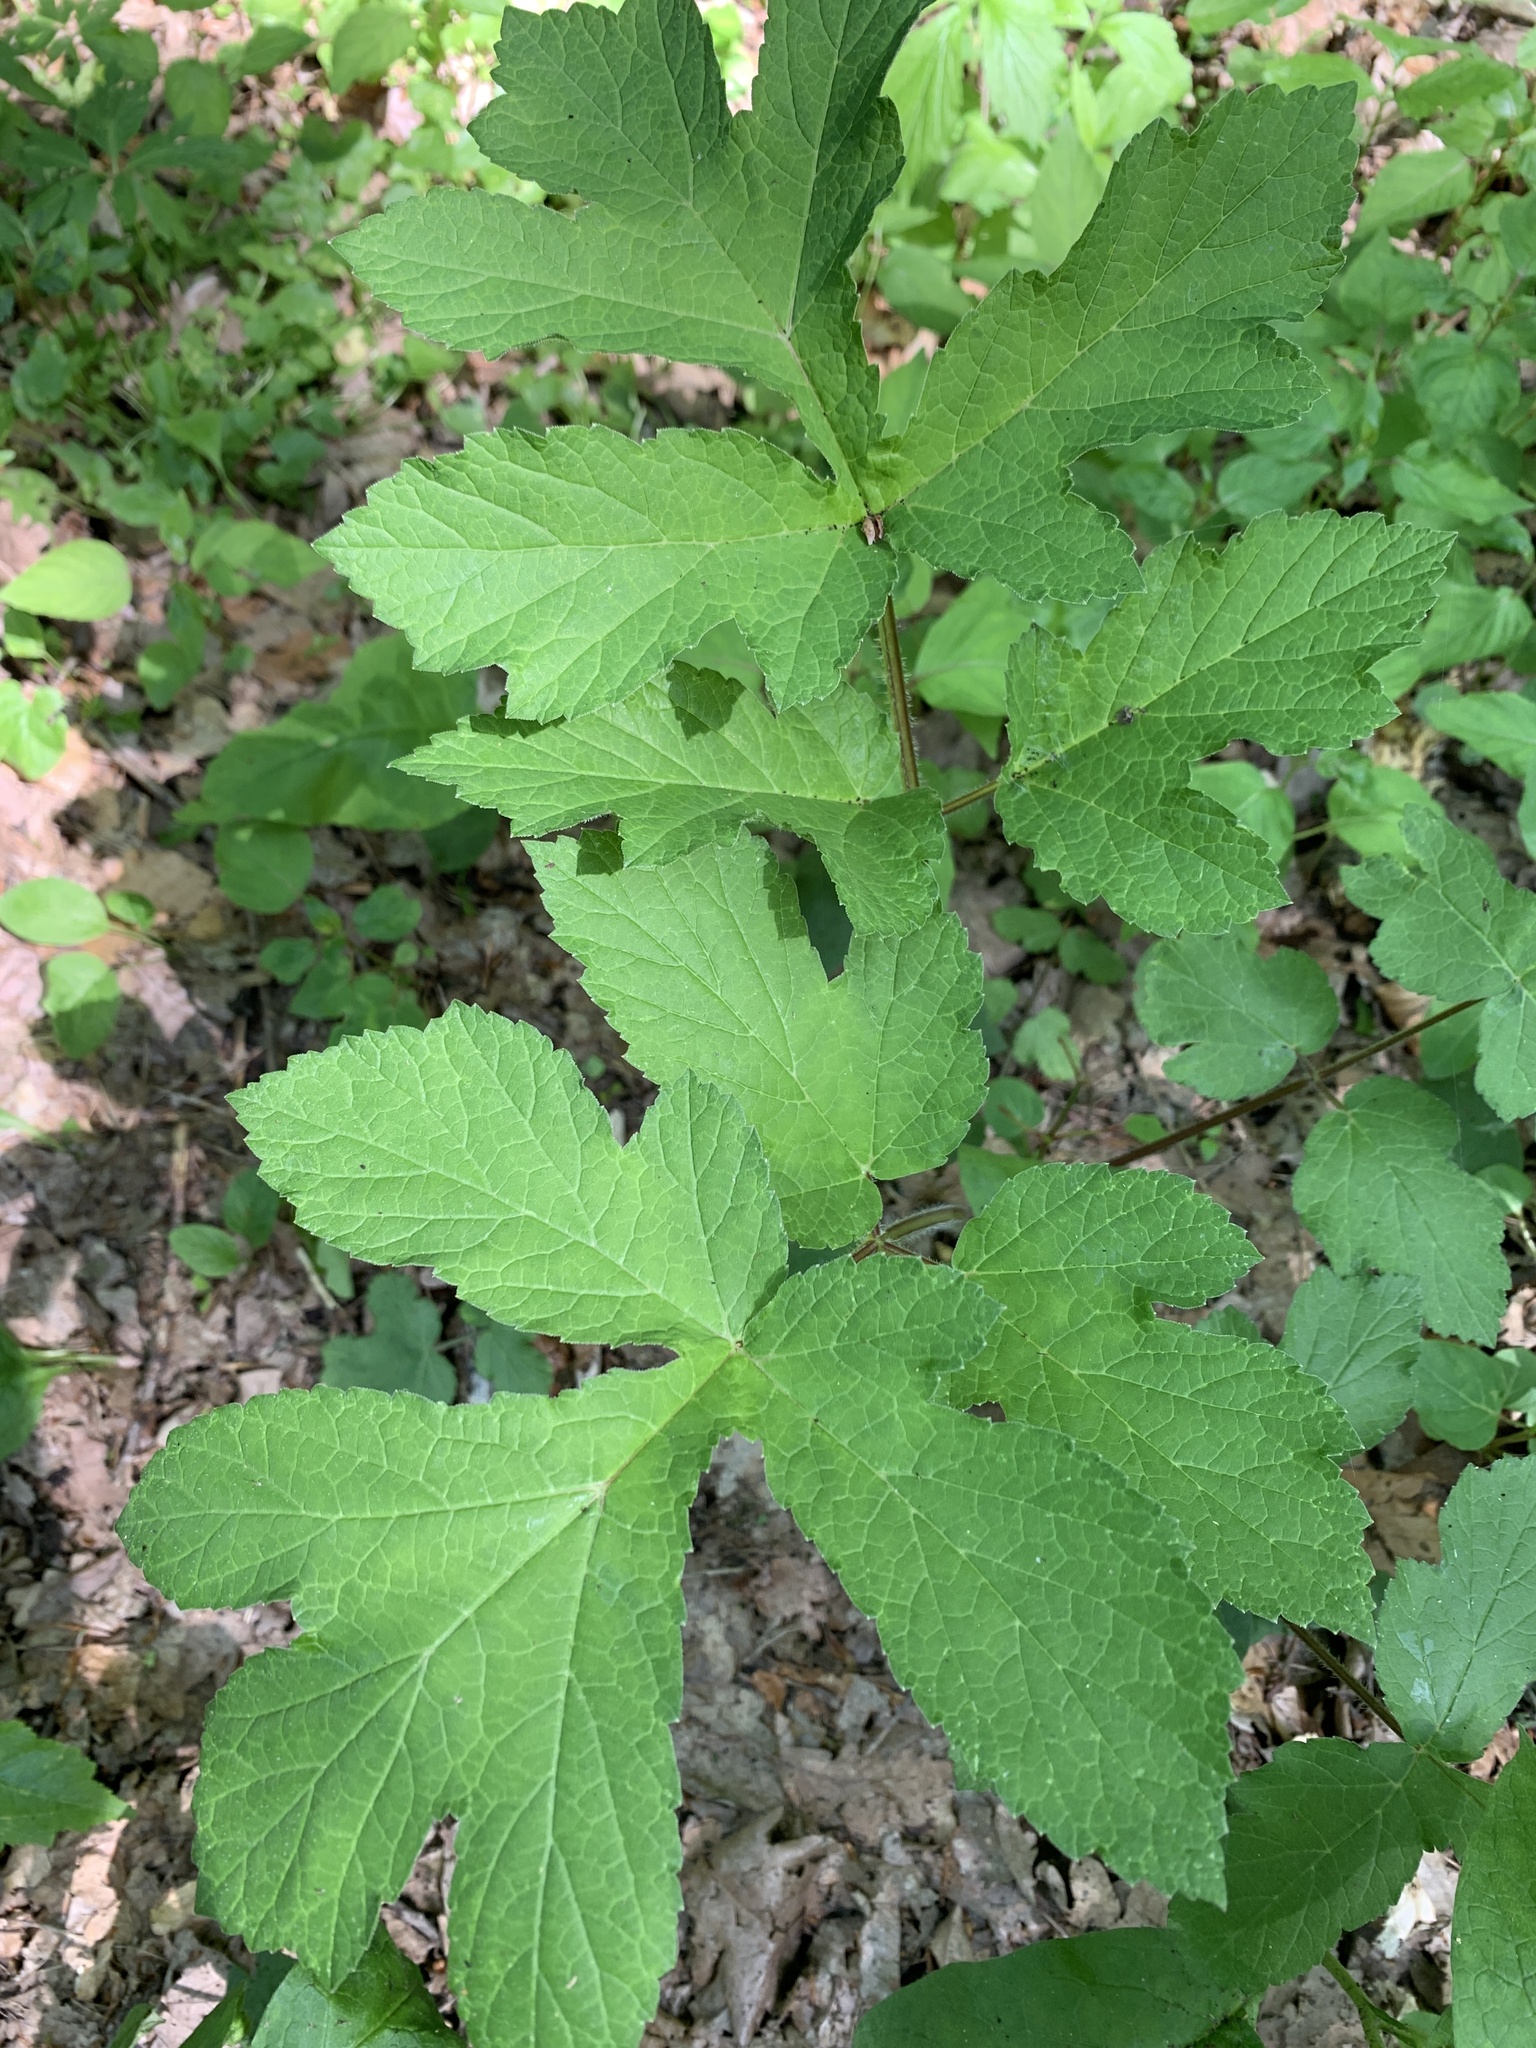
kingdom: Plantae
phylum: Tracheophyta
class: Magnoliopsida
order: Apiales
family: Apiaceae
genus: Heracleum
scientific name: Heracleum sphondylium
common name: Hogweed
